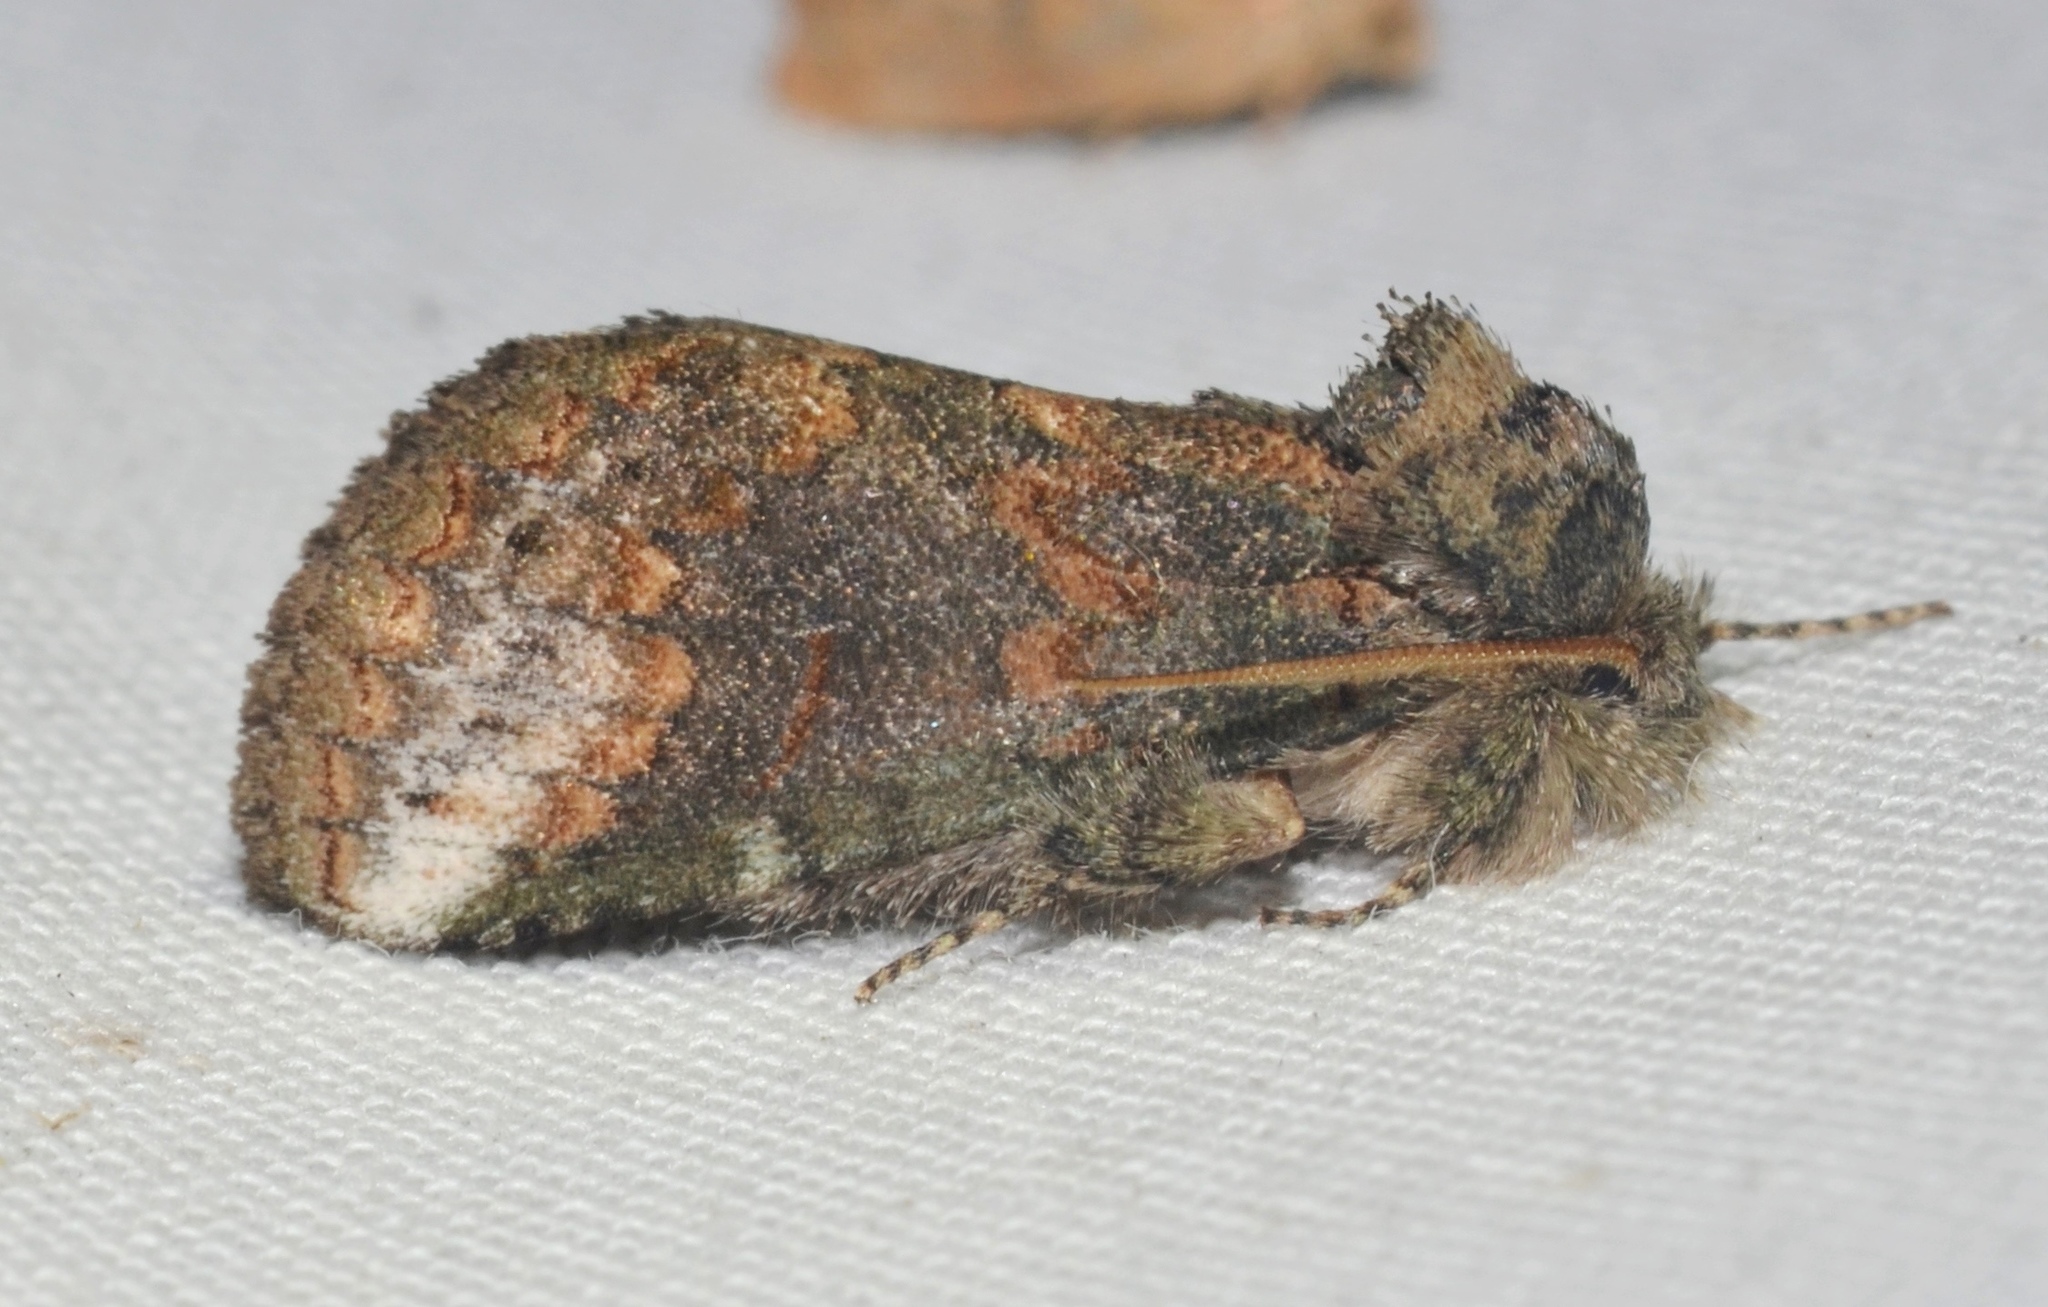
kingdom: Animalia
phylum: Arthropoda
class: Insecta
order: Lepidoptera
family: Notodontidae
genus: Rifargia
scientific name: Rifargia
